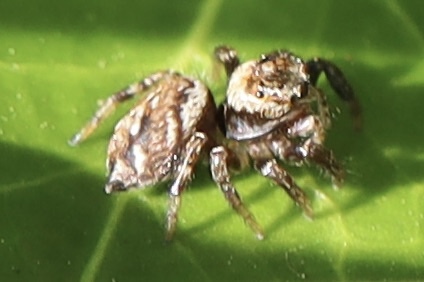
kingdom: Animalia
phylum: Arthropoda
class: Arachnida
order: Araneae
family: Salticidae
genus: Evarcha
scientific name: Evarcha proszynskii
